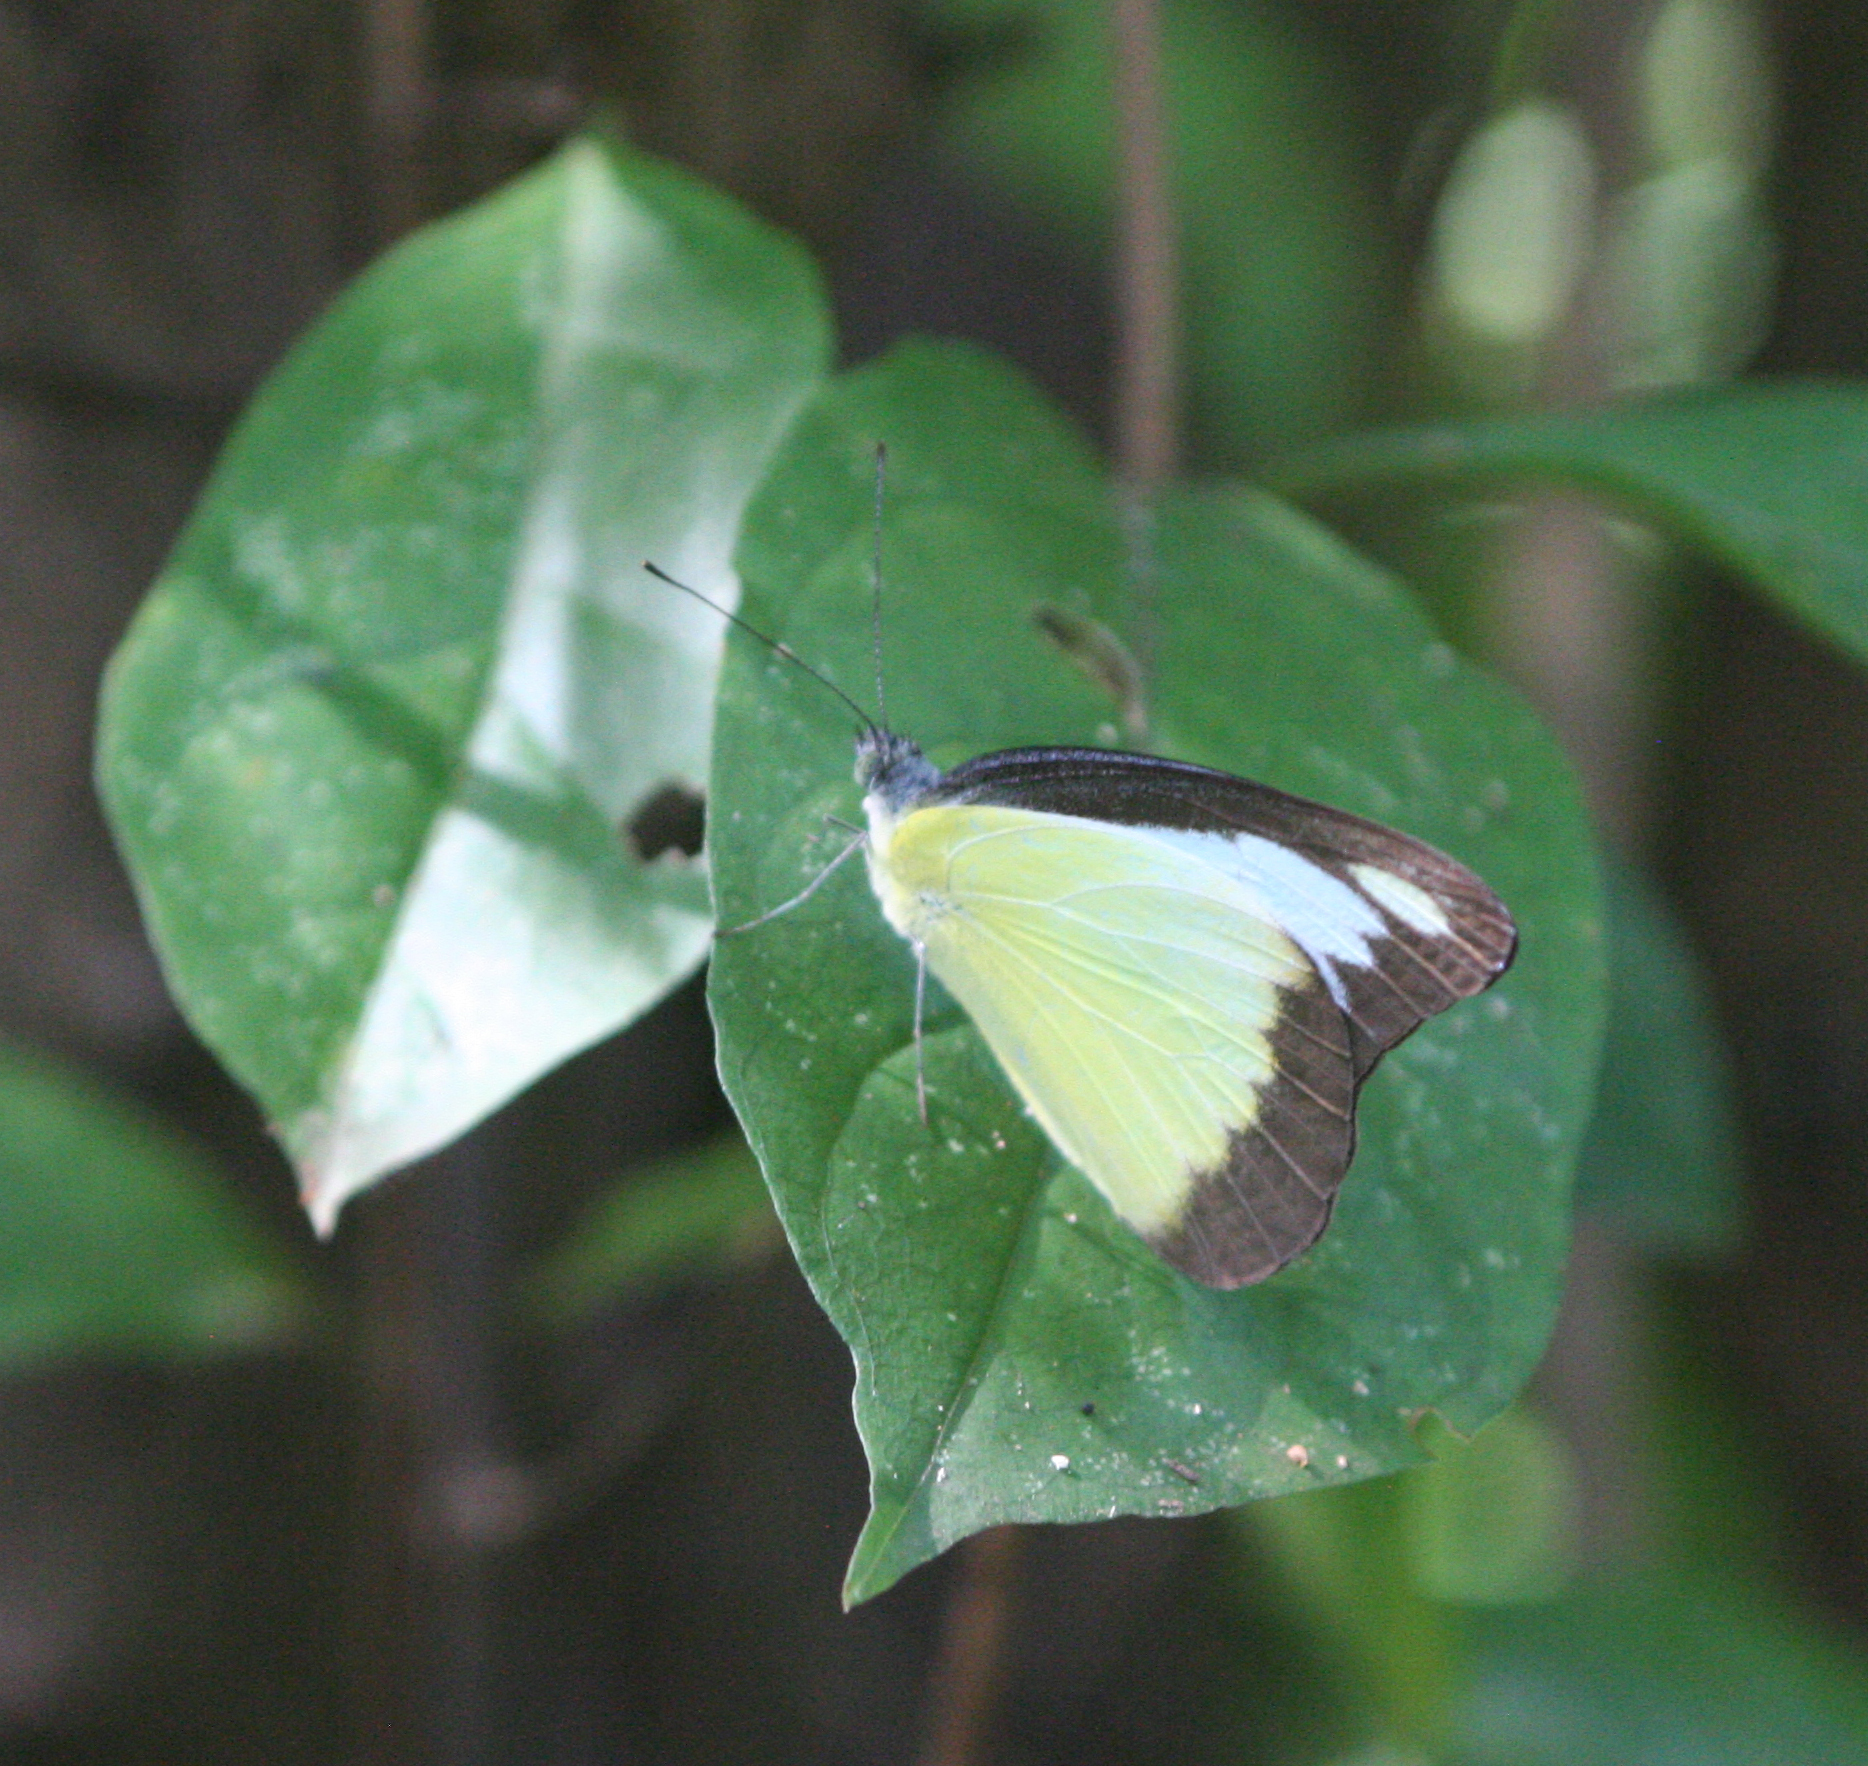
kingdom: Animalia
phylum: Arthropoda
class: Insecta
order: Lepidoptera
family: Pieridae
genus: Appias
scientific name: Appias lyncida
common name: Chocolate albatross
